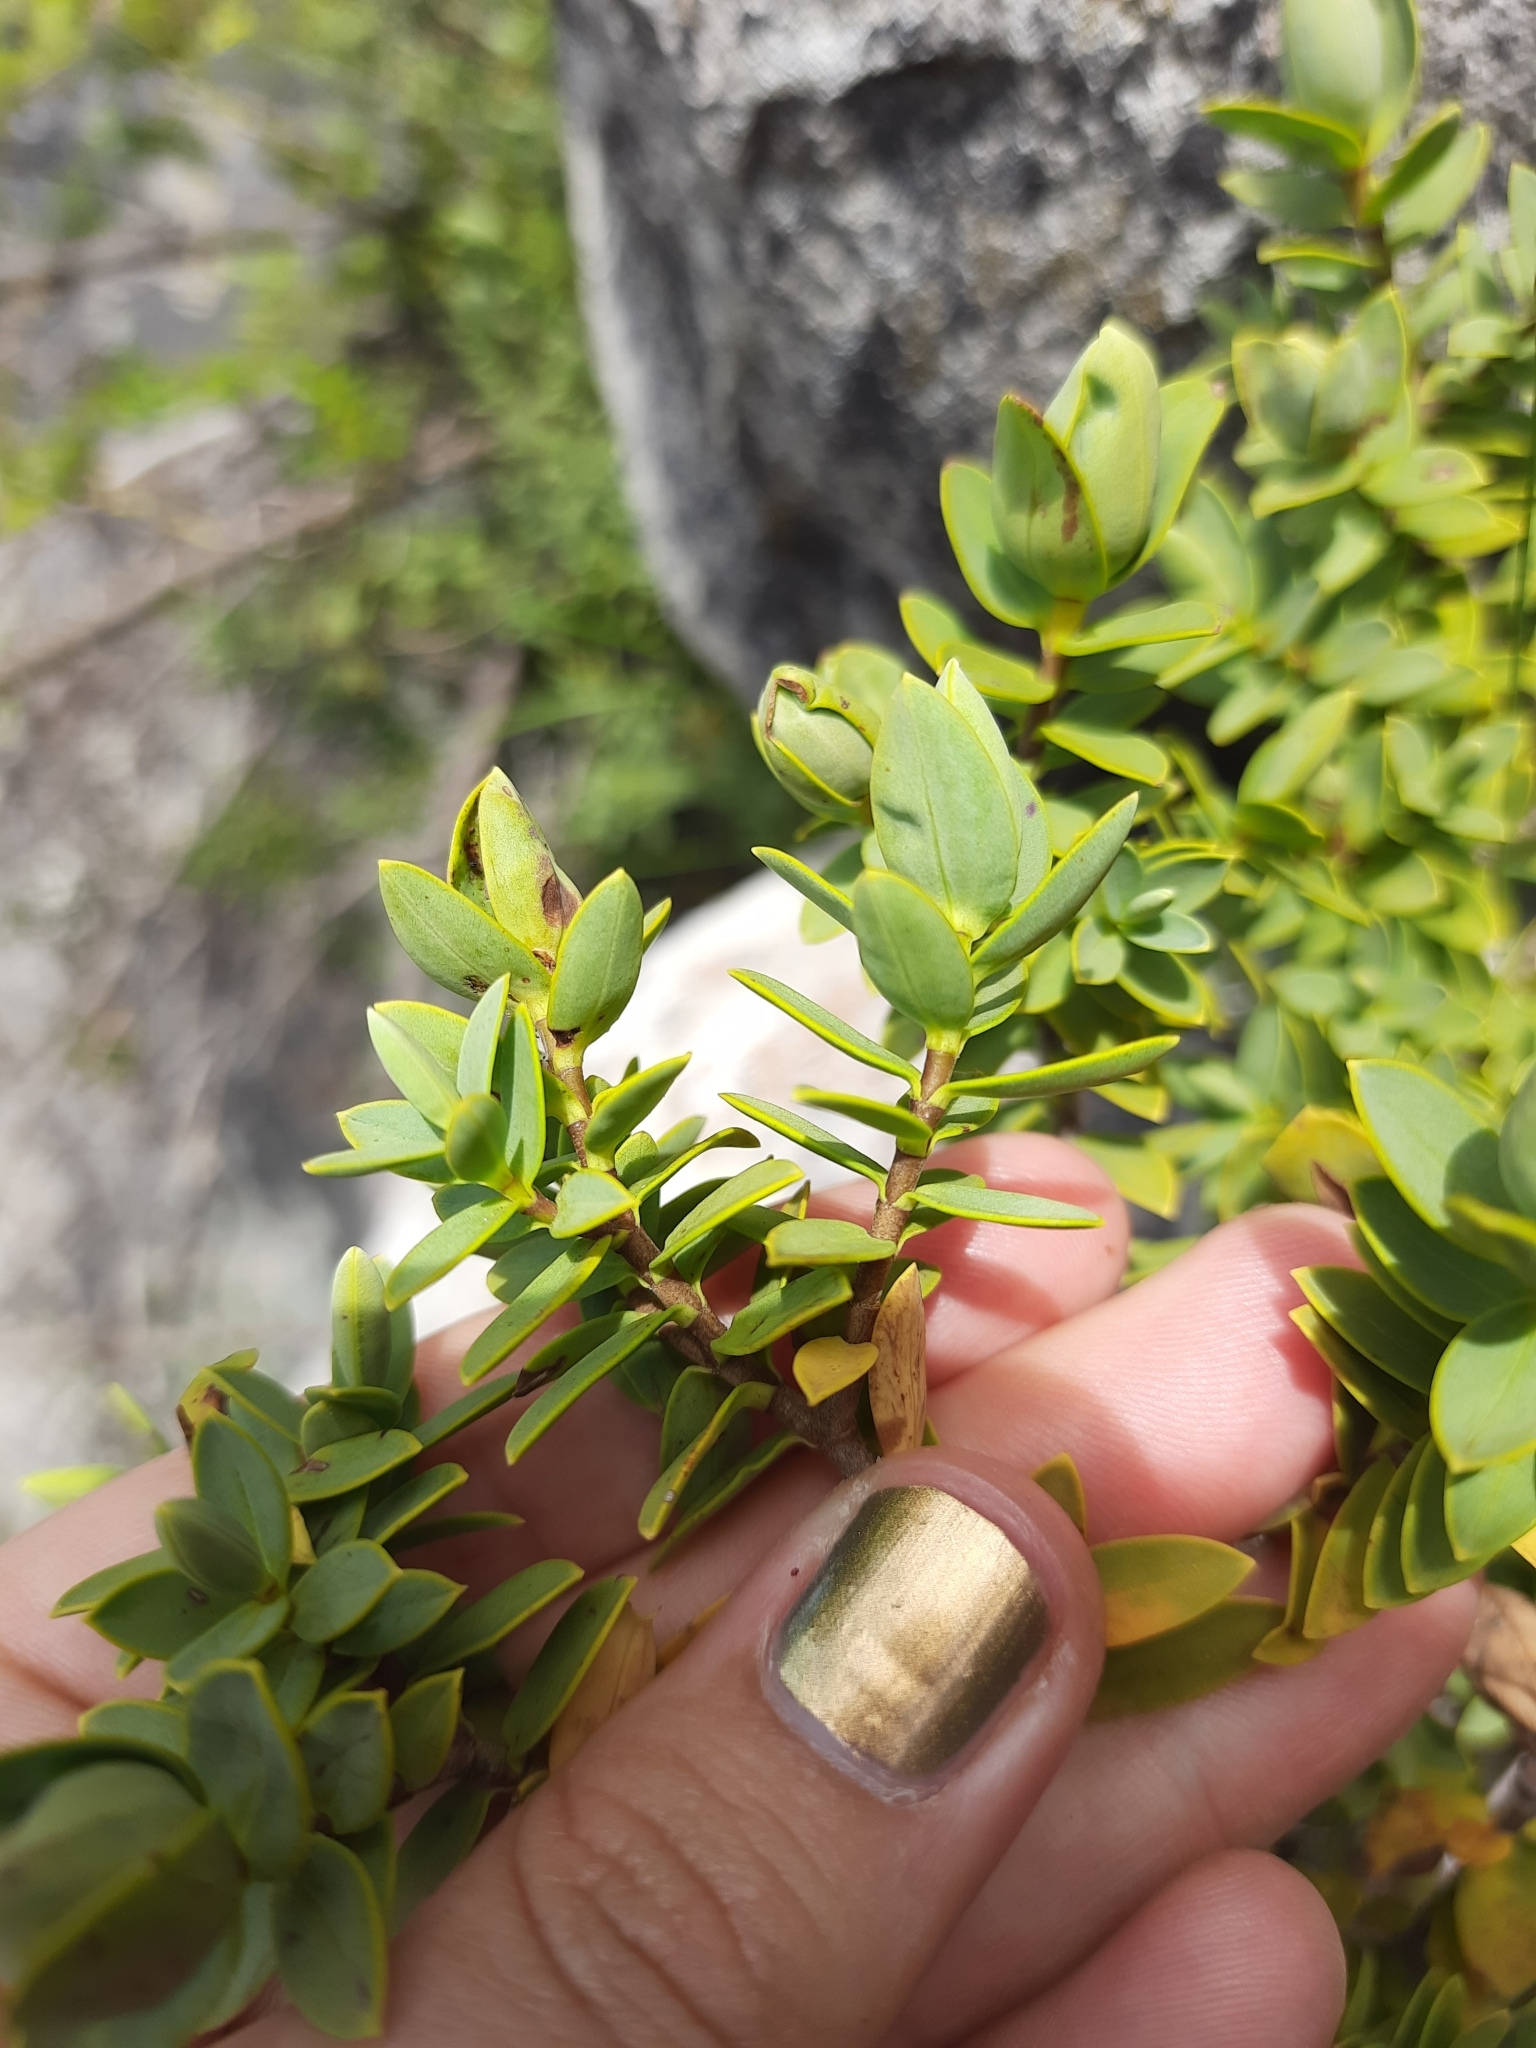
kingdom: Plantae
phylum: Tracheophyta
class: Magnoliopsida
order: Lamiales
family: Plantaginaceae
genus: Veronica
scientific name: Veronica glaucophylla
